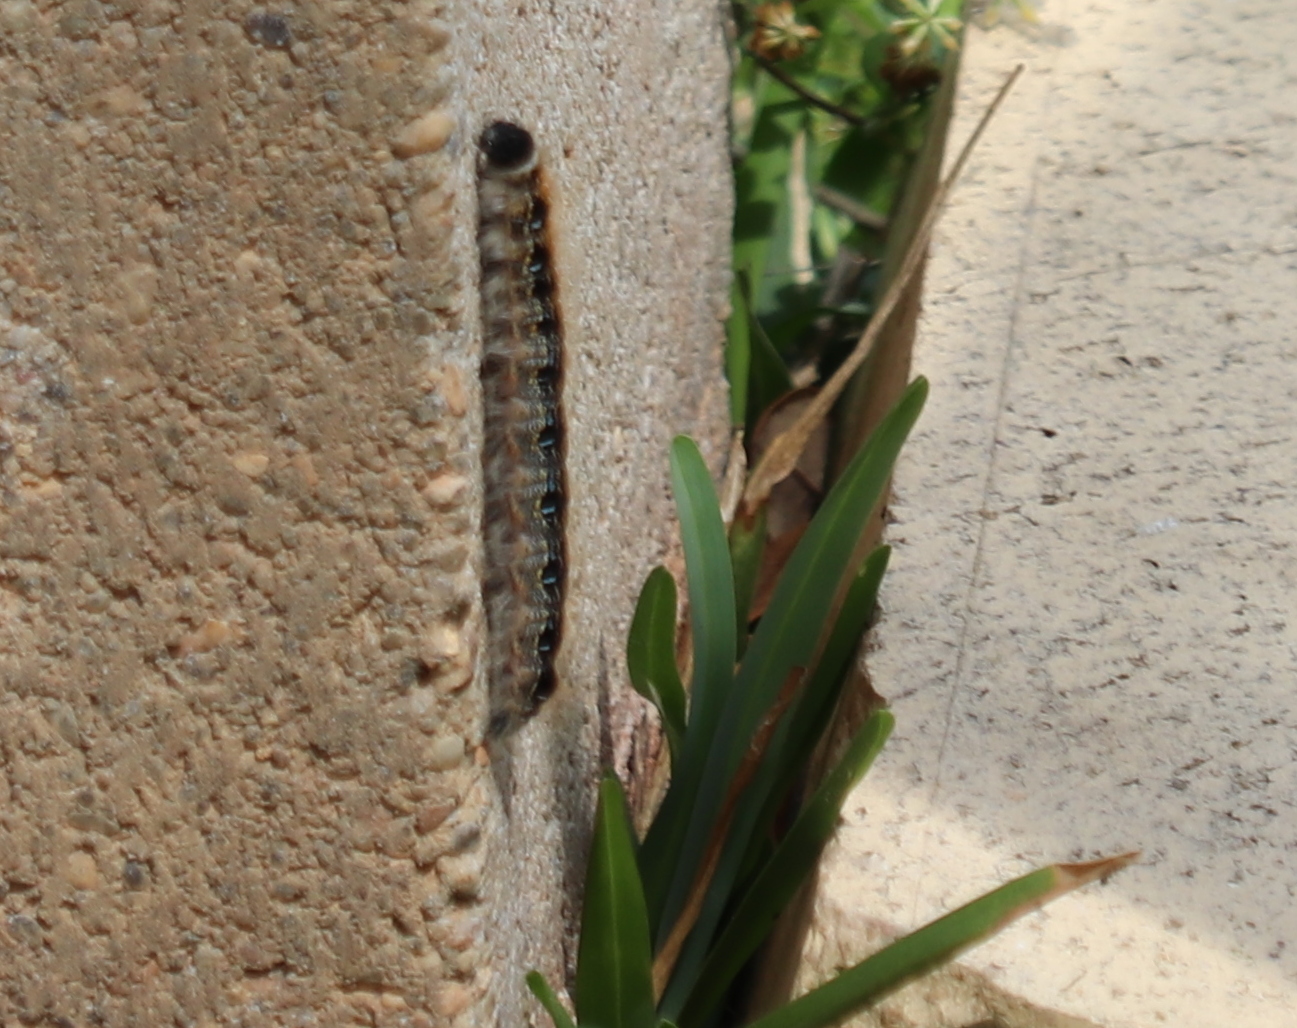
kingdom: Animalia
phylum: Arthropoda
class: Insecta
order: Lepidoptera
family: Lasiocampidae
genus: Malacosoma
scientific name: Malacosoma americana
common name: Eastern tent caterpillar moth
